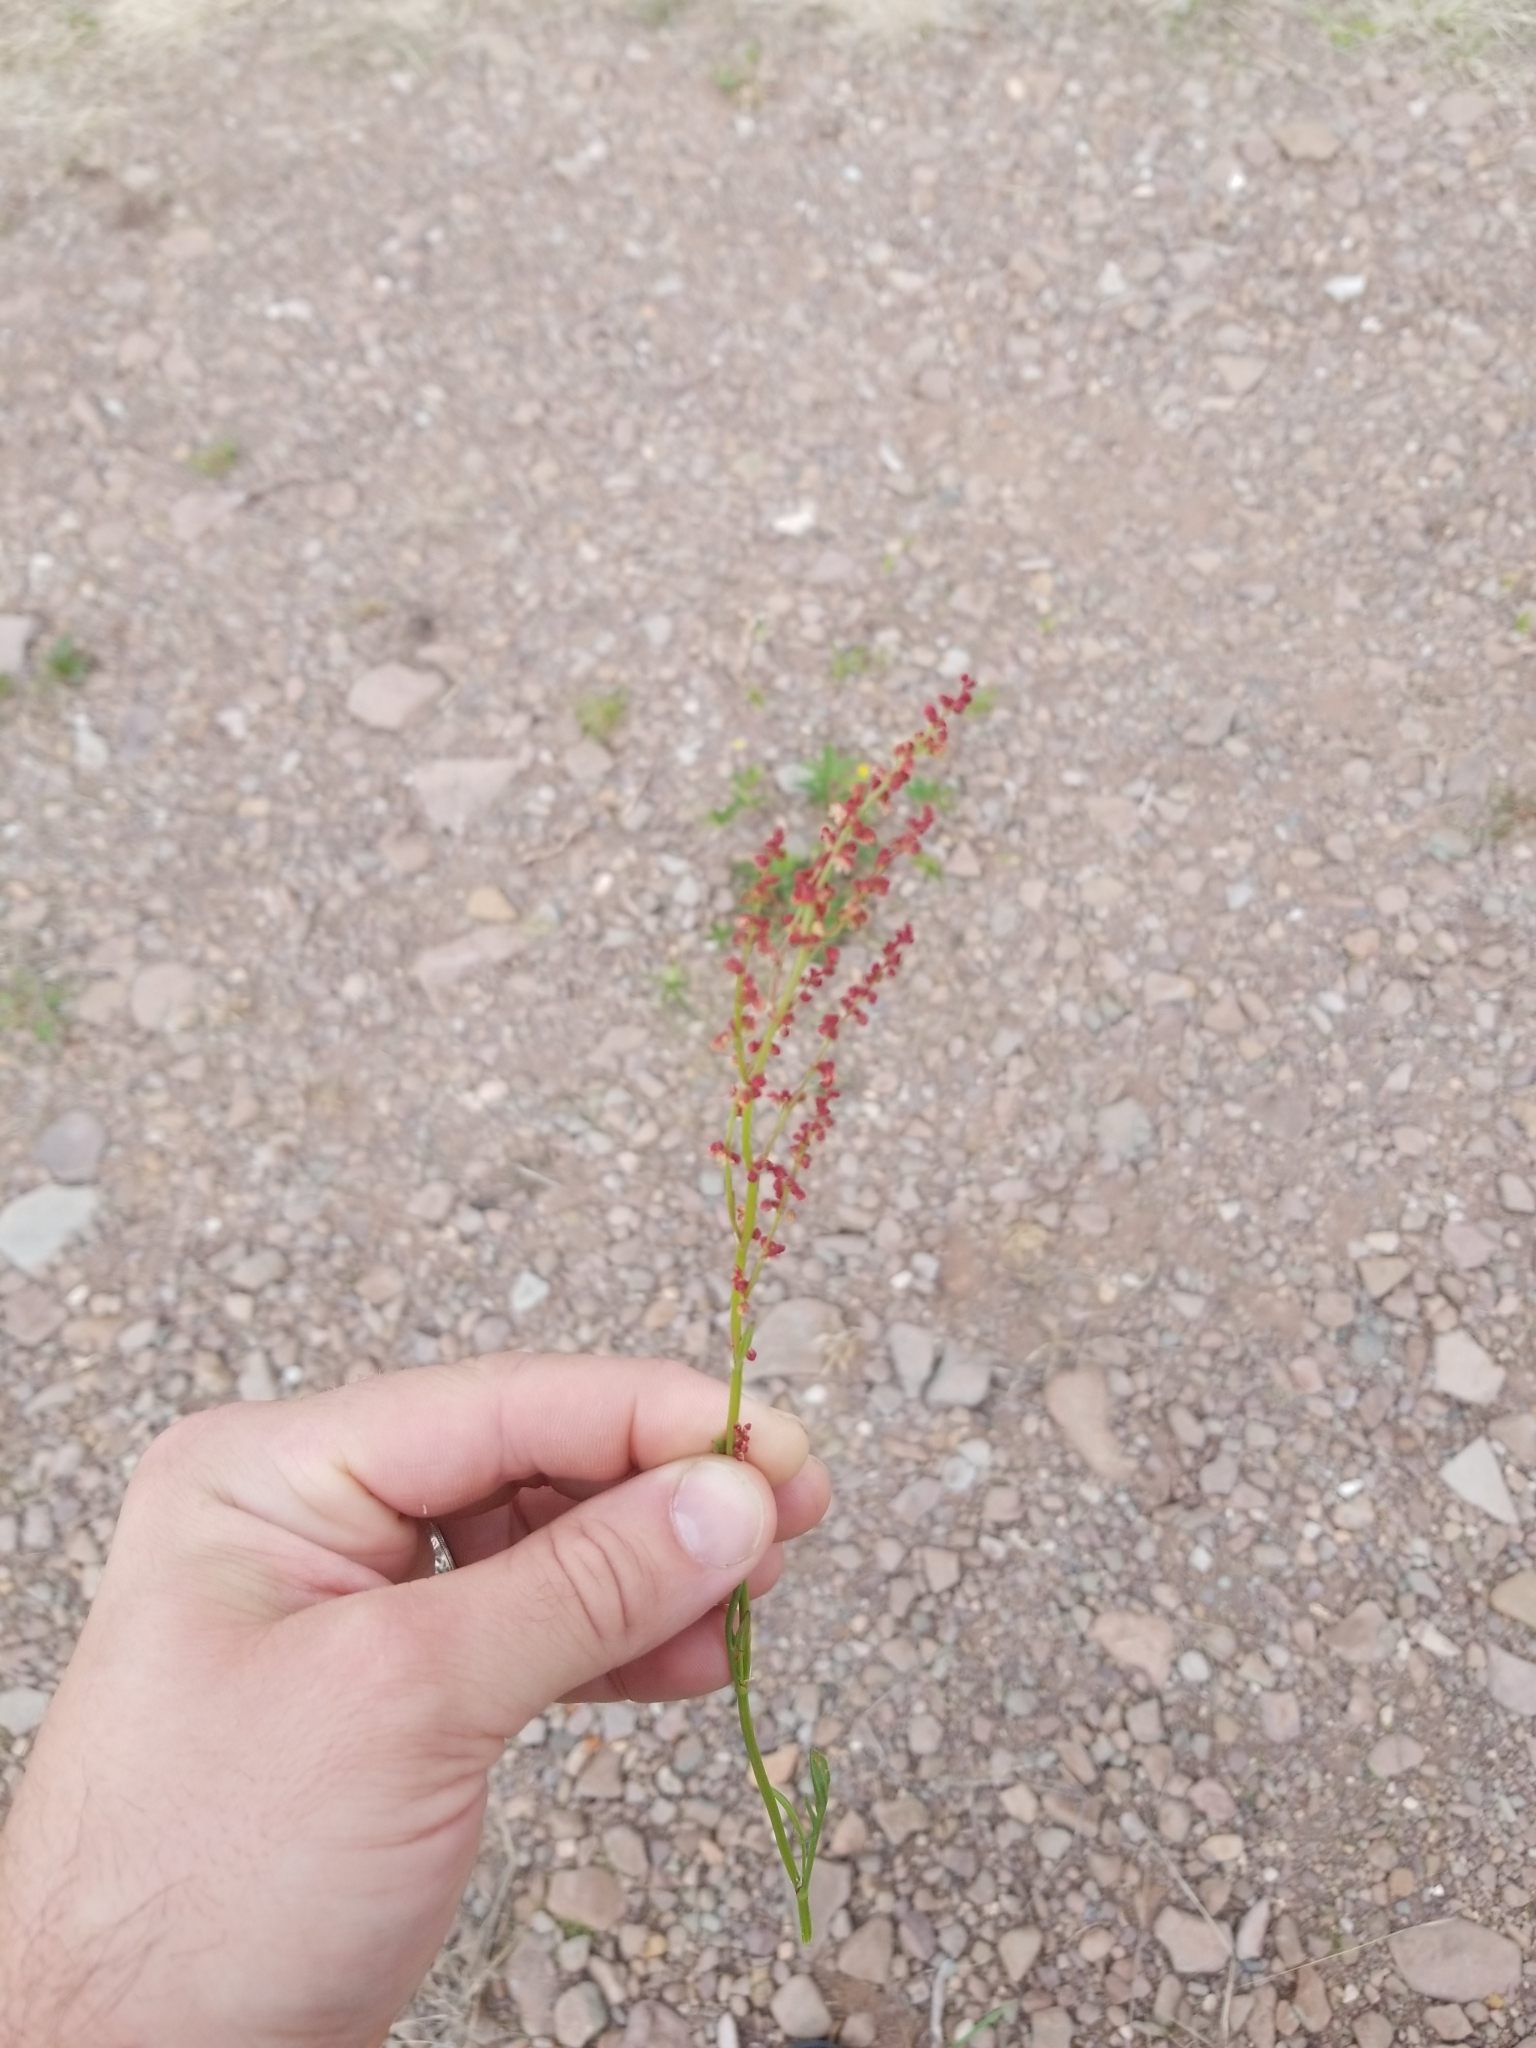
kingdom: Plantae
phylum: Tracheophyta
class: Magnoliopsida
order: Caryophyllales
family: Polygonaceae
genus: Rumex
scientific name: Rumex acetosella
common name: Common sheep sorrel
